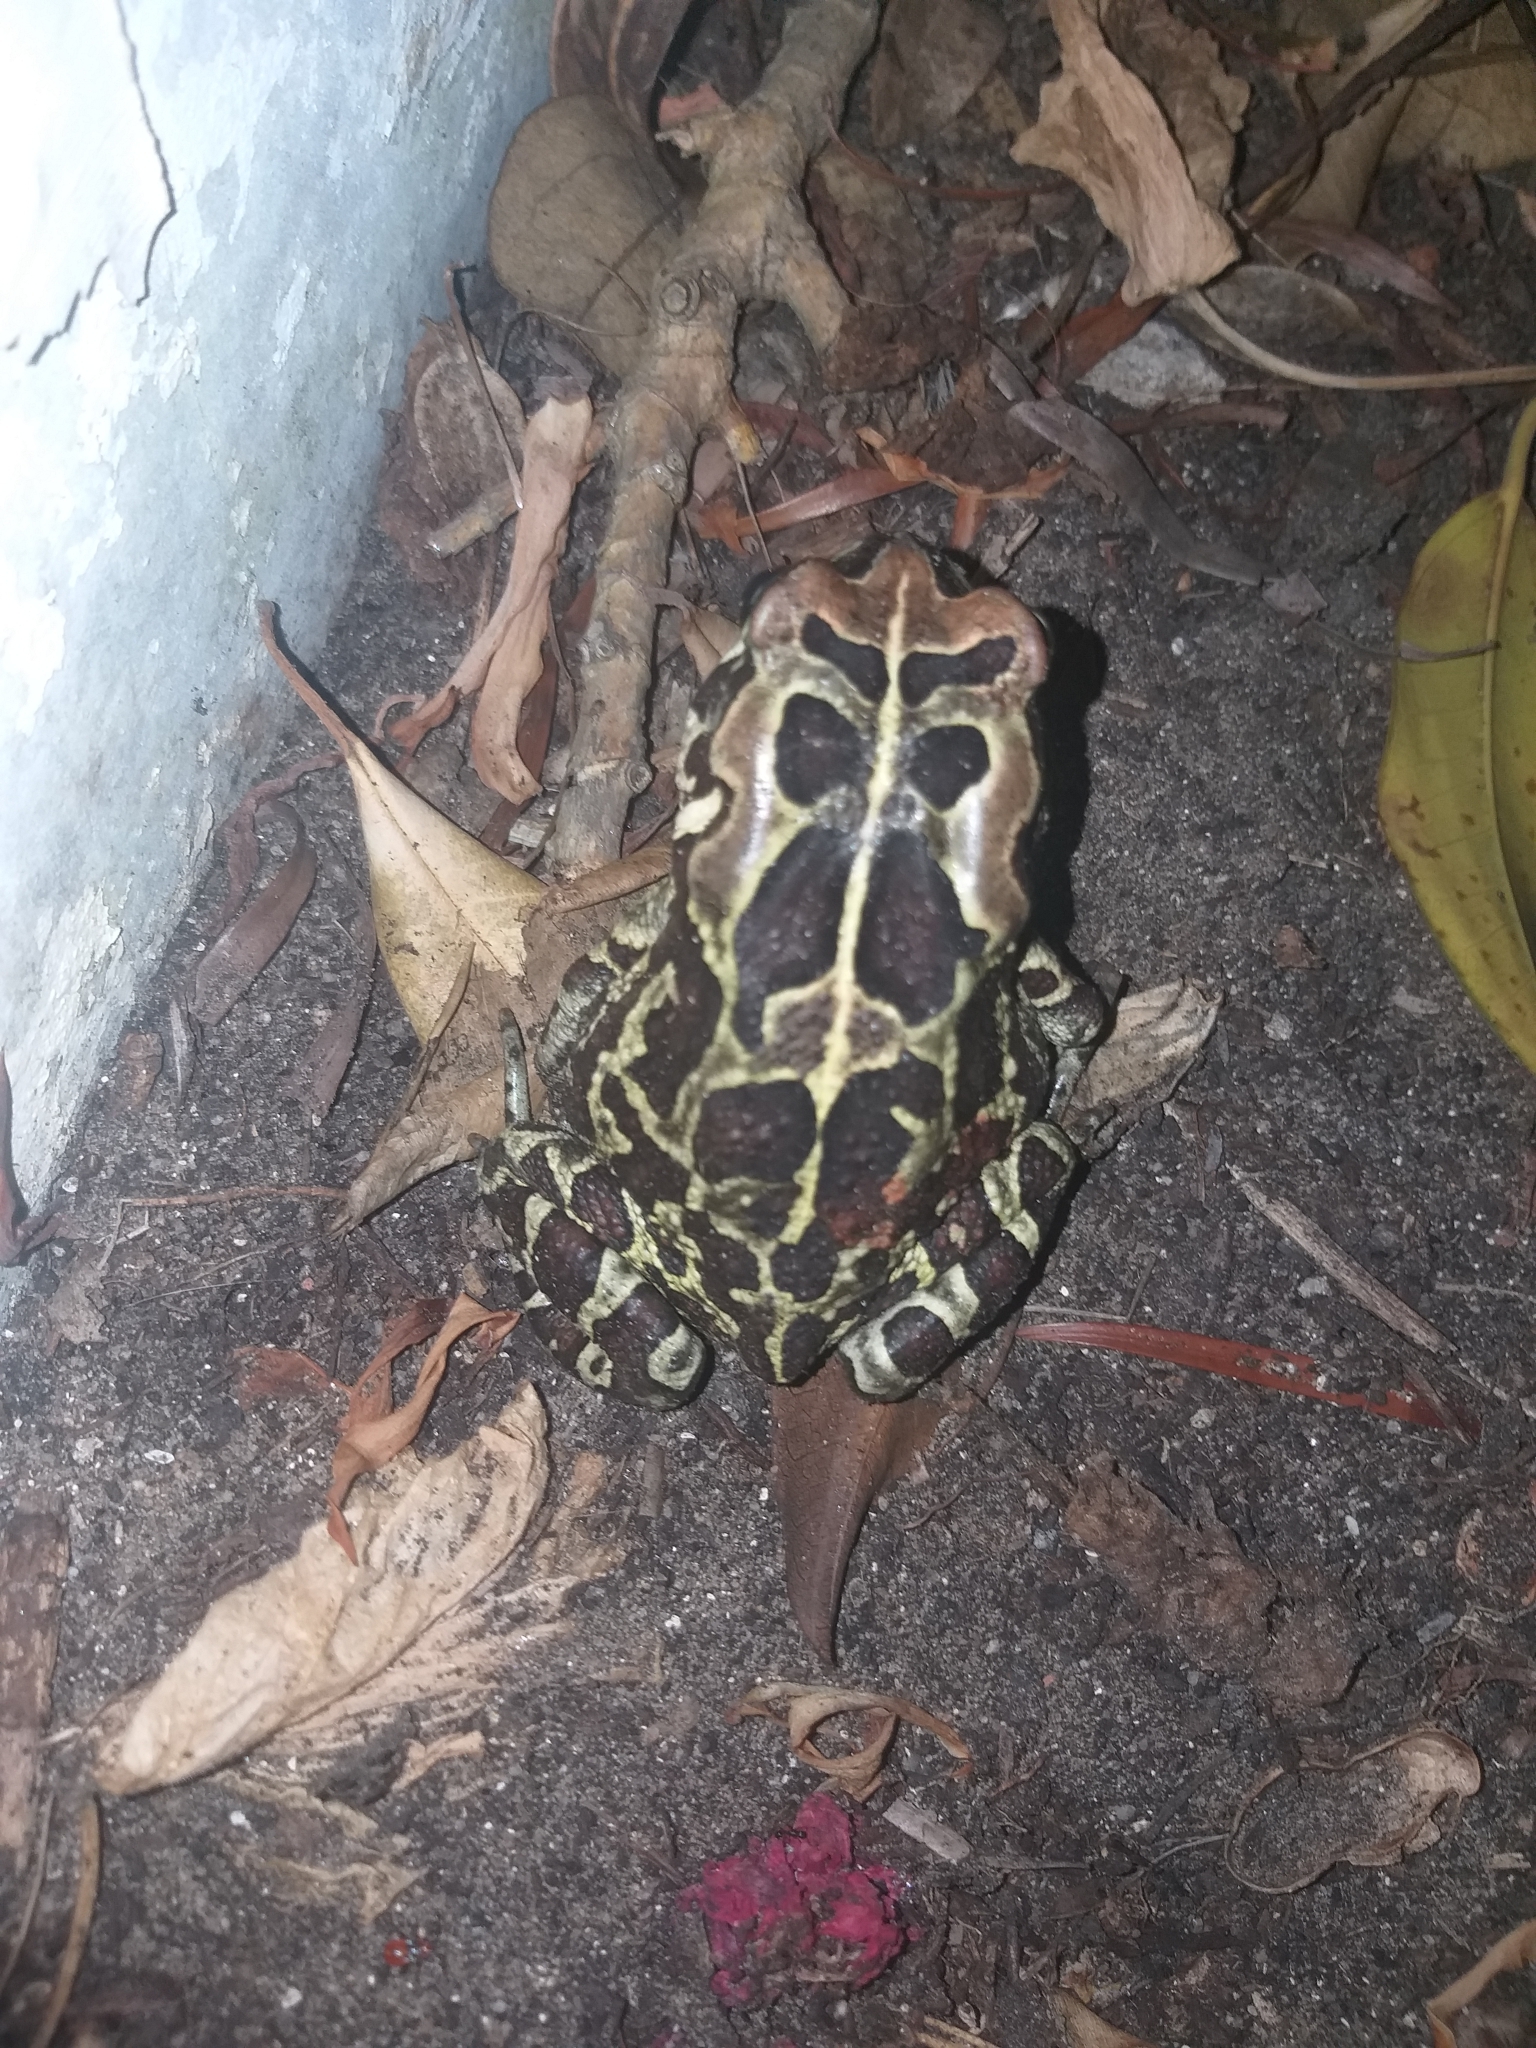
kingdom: Animalia
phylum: Chordata
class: Amphibia
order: Anura
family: Bufonidae
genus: Sclerophrys
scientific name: Sclerophrys pantherina
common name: Panther toad
